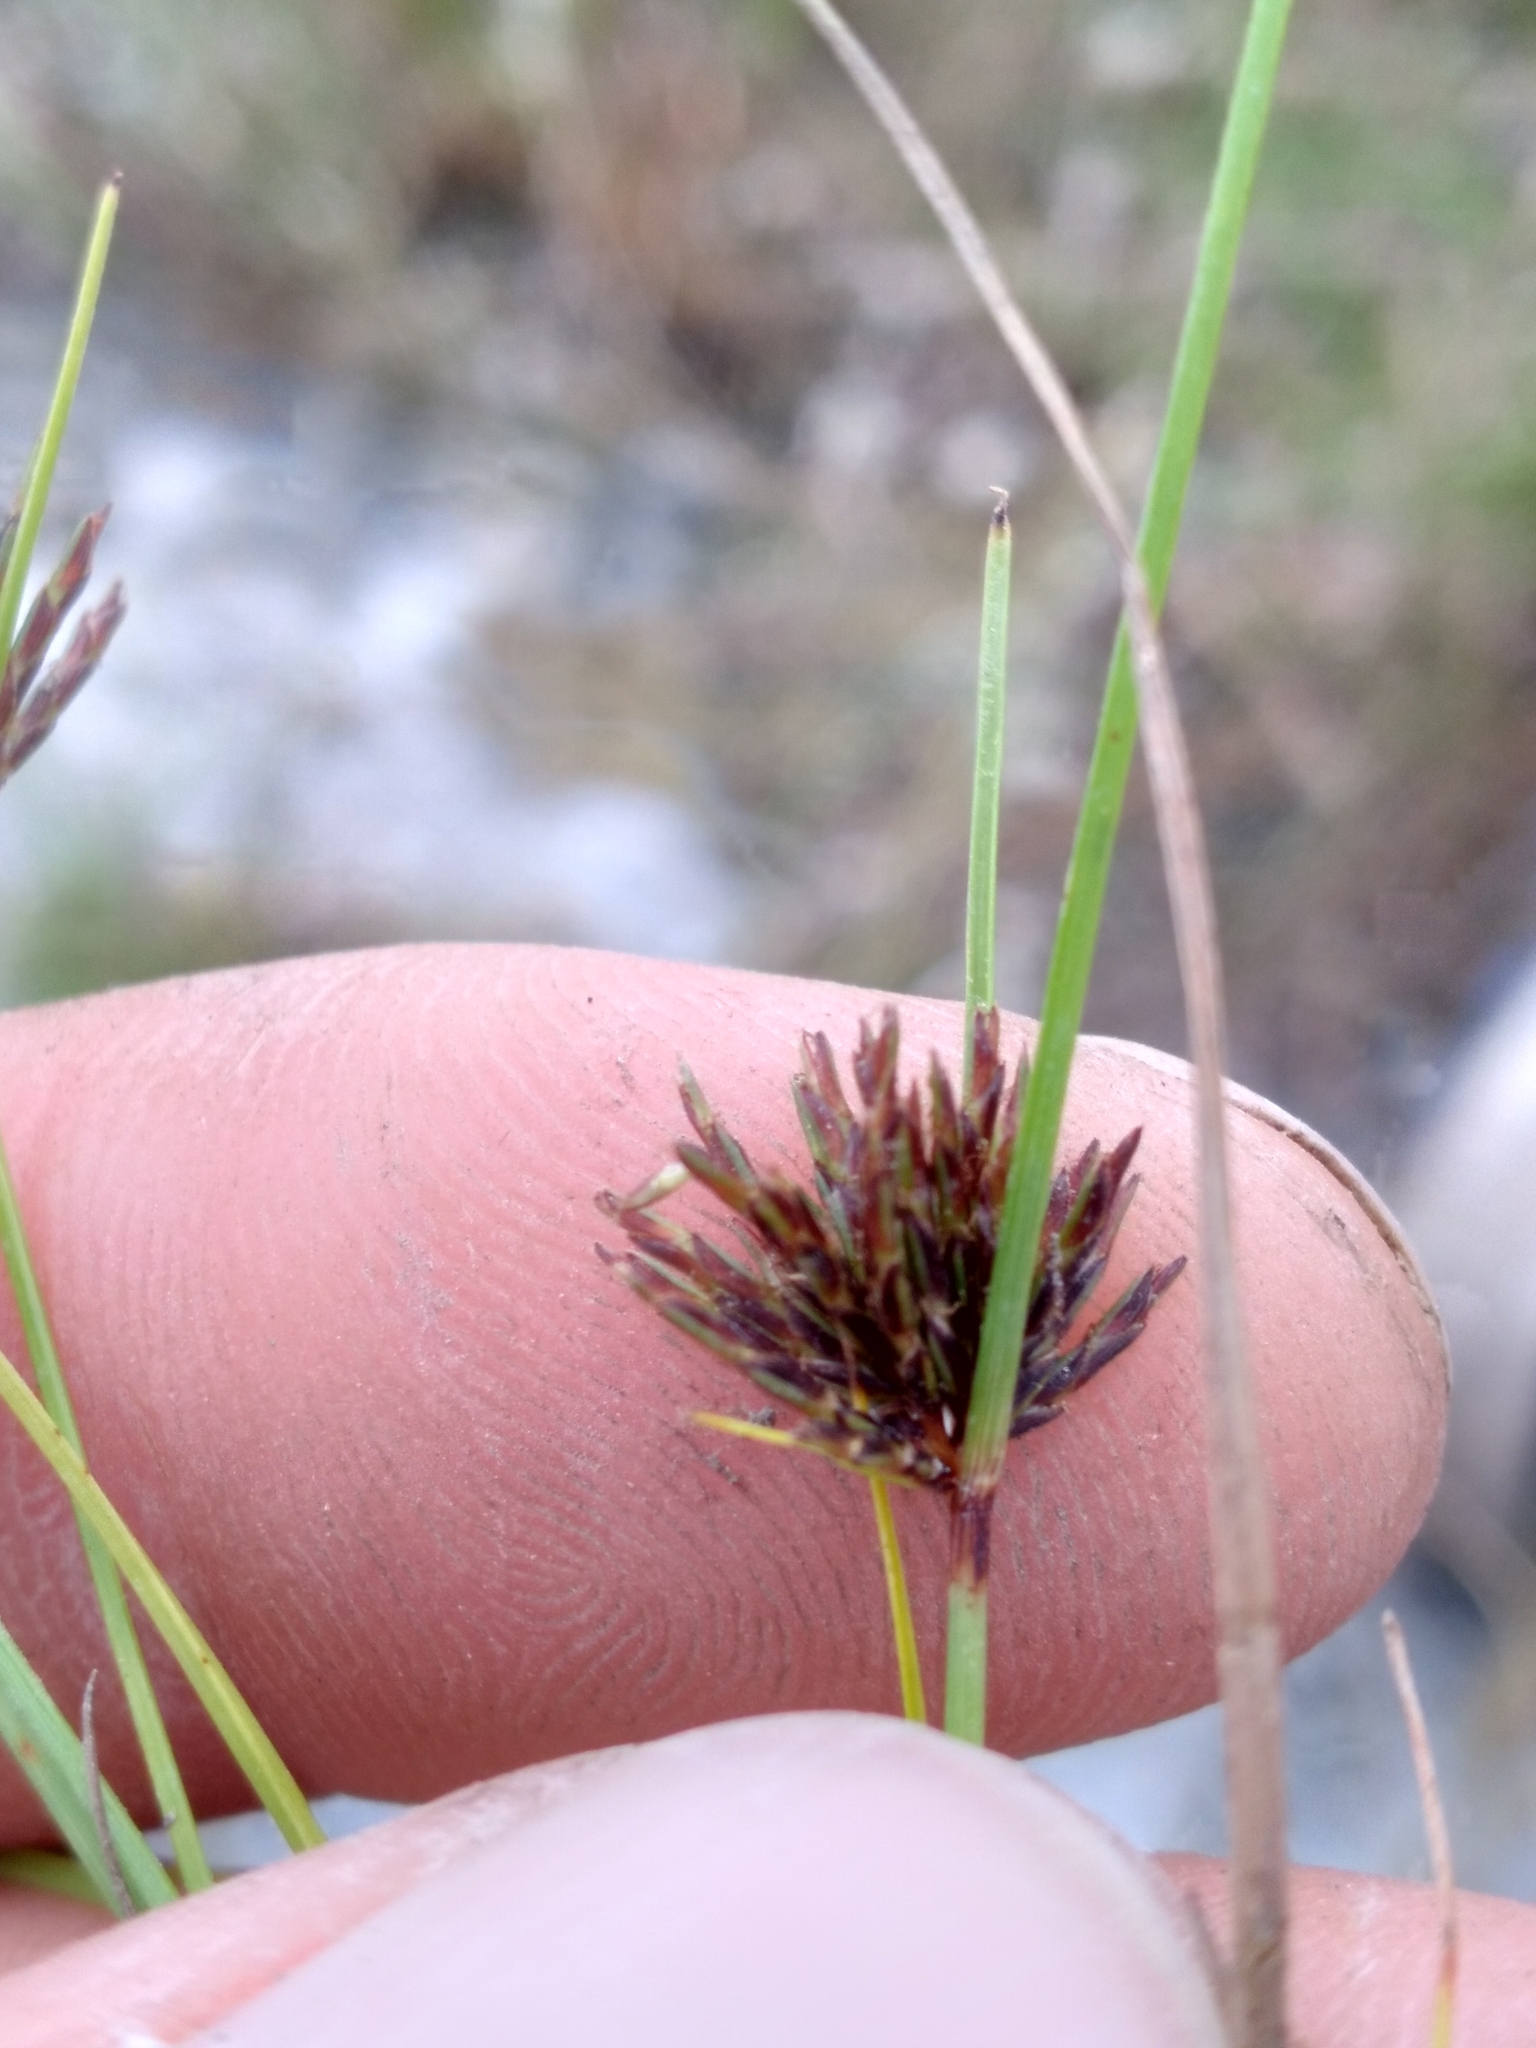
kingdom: Plantae
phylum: Tracheophyta
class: Liliopsida
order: Poales
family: Cyperaceae
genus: Cyperus
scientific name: Cyperus fuligineus
